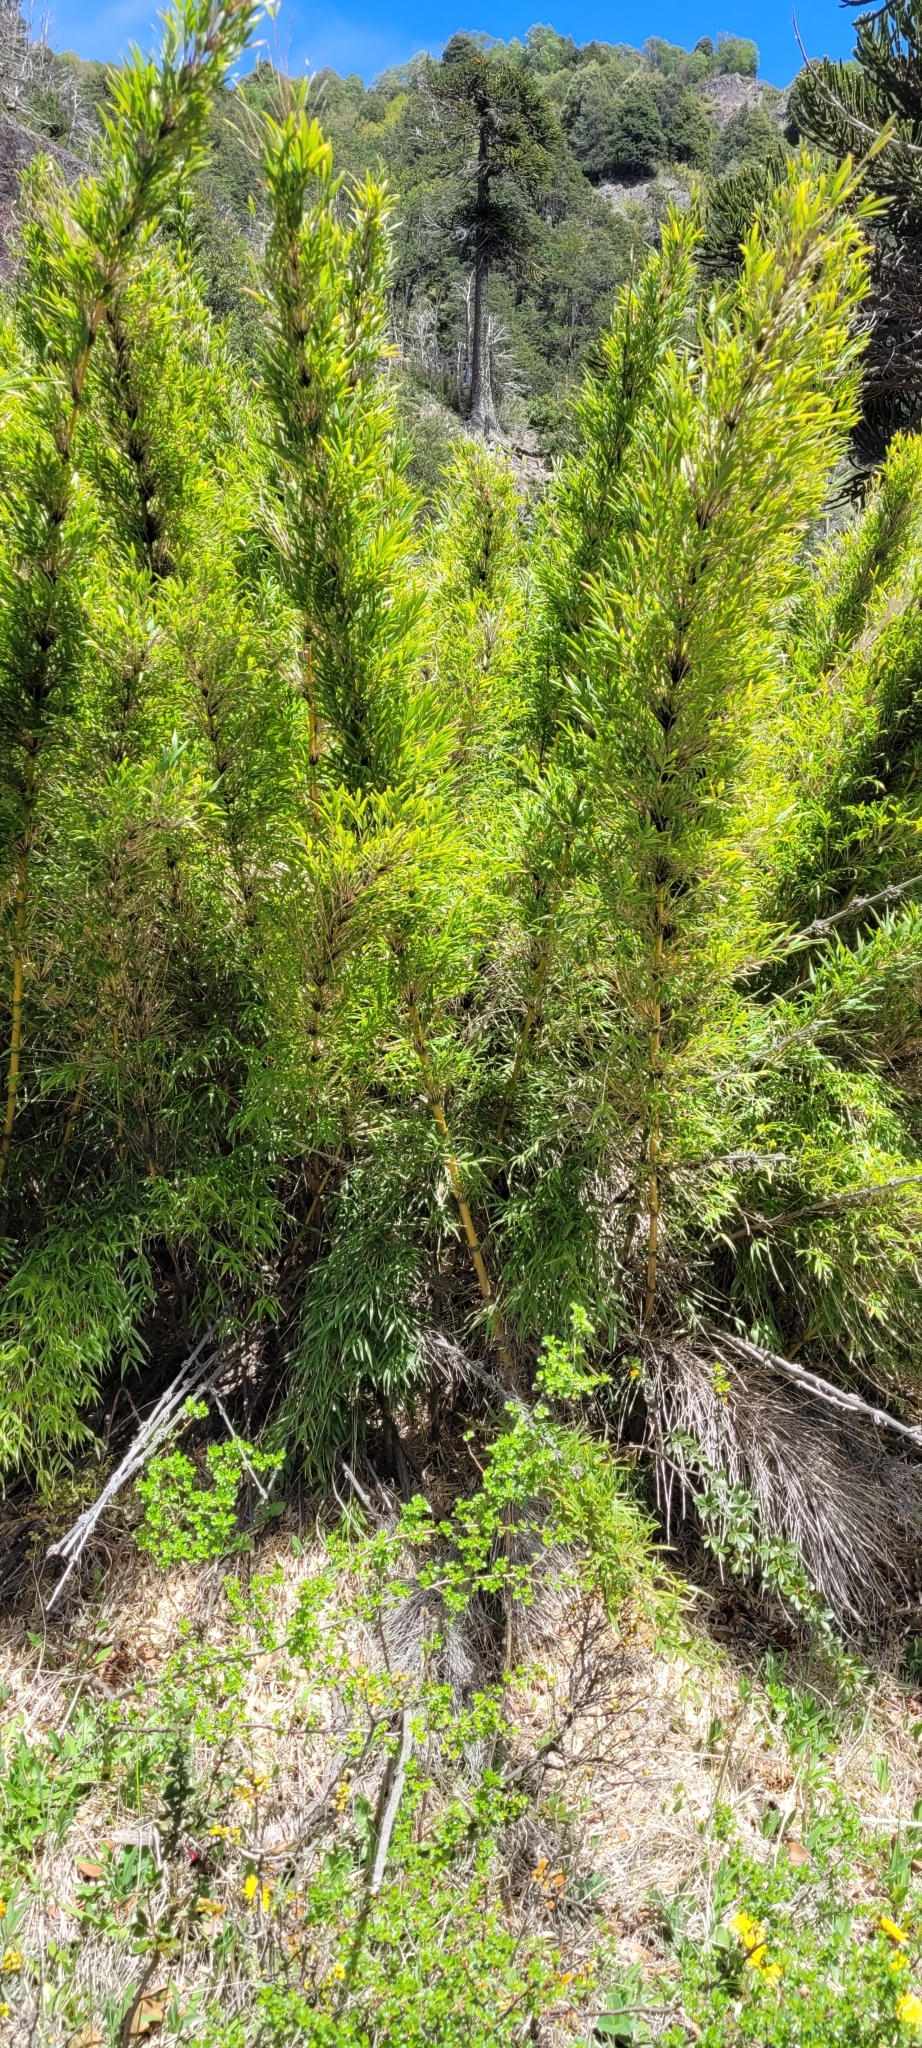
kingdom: Plantae
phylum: Tracheophyta
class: Liliopsida
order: Poales
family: Poaceae
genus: Chusquea
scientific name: Chusquea quila
